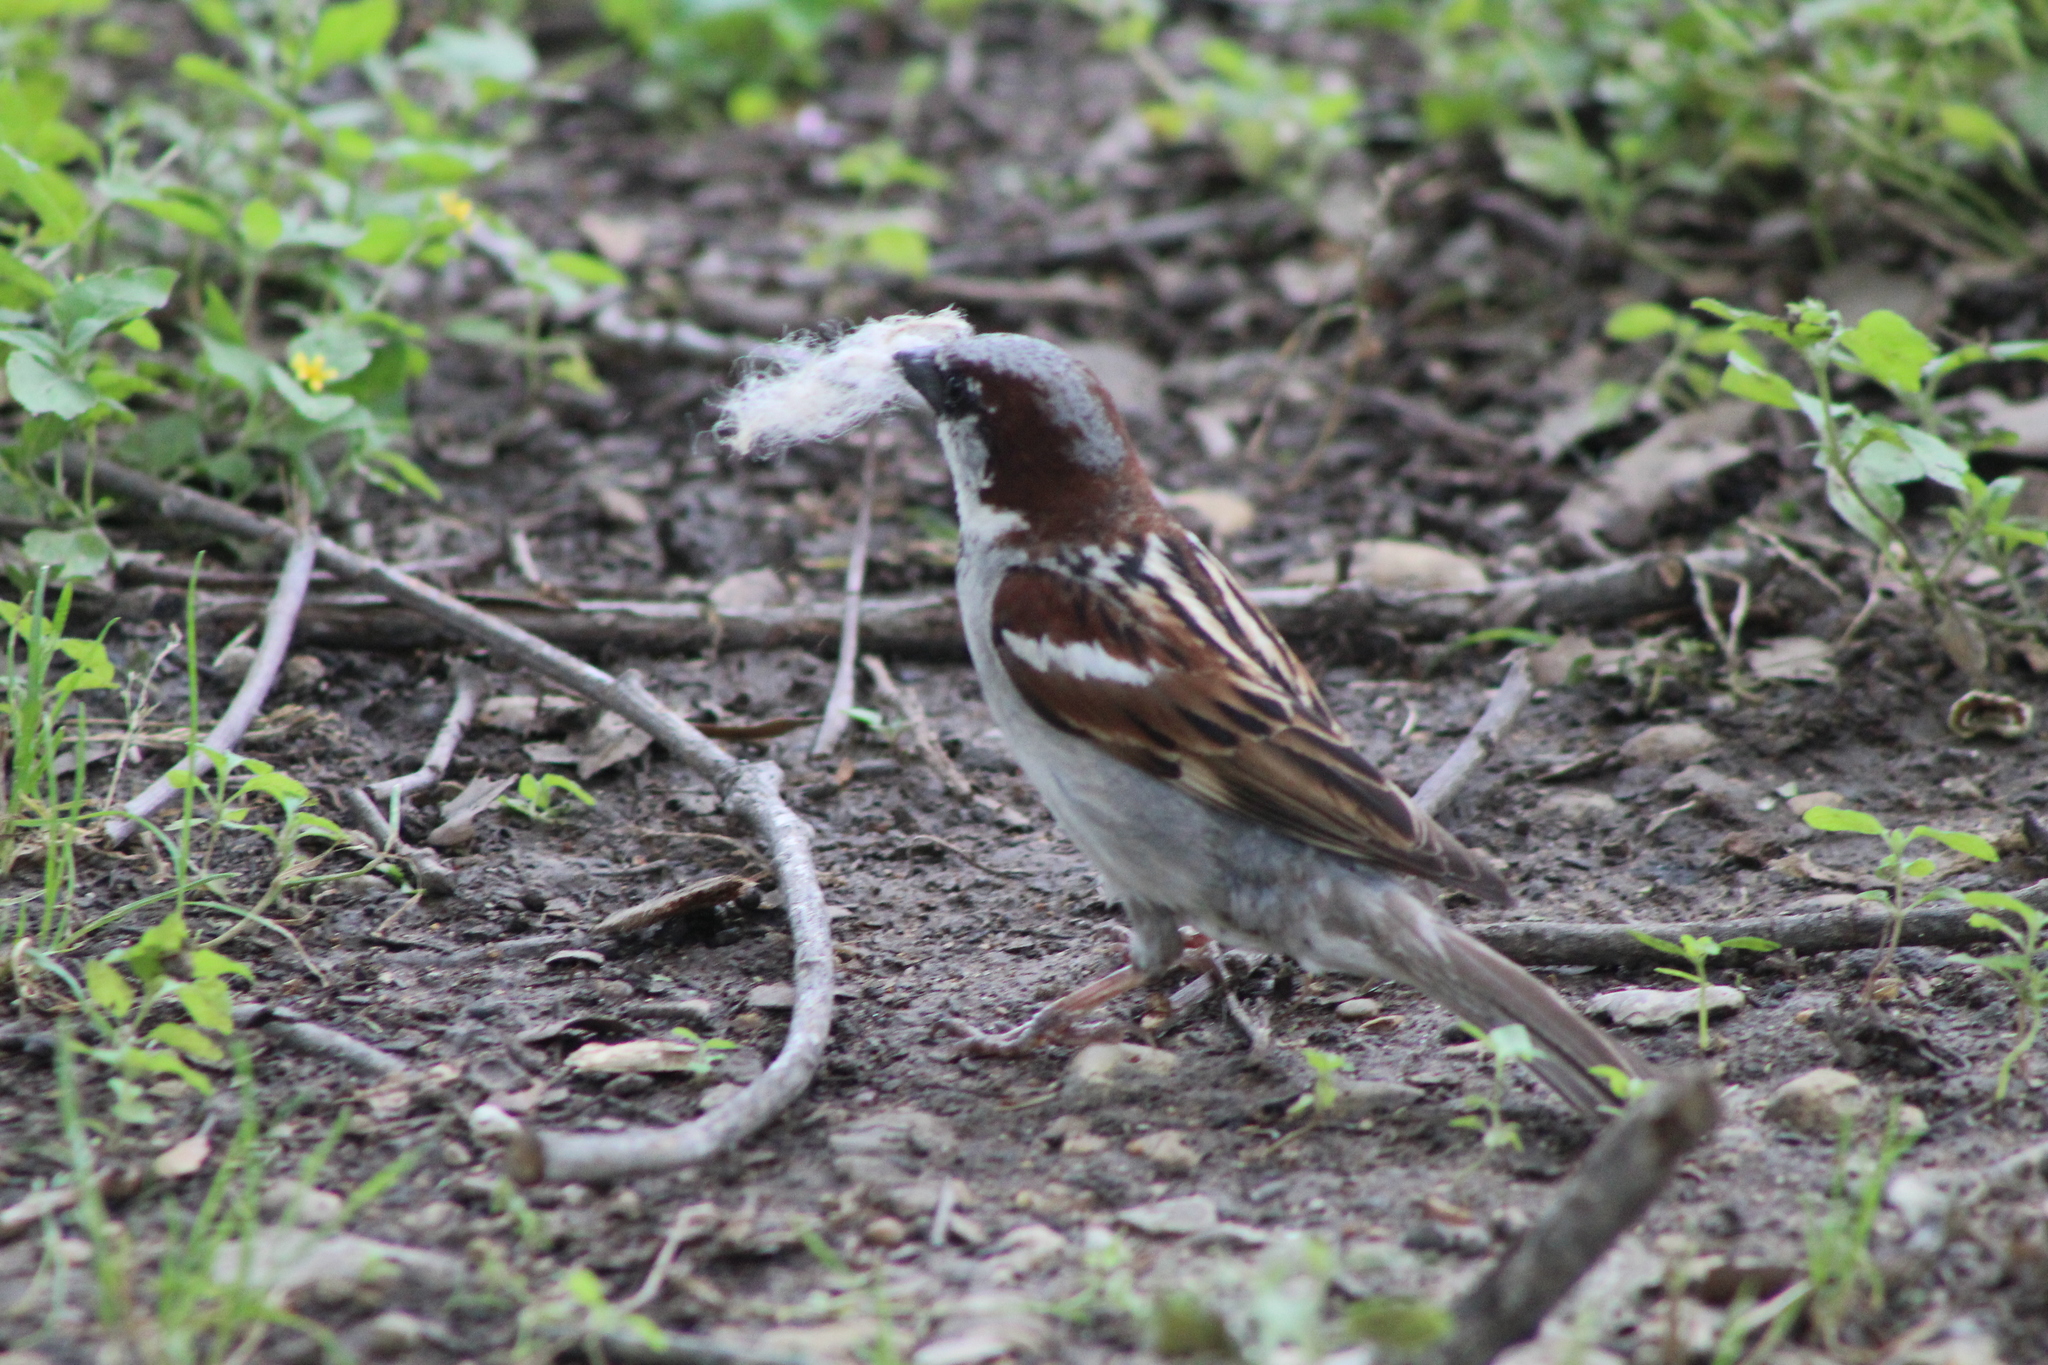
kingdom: Animalia
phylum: Chordata
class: Aves
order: Passeriformes
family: Passeridae
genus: Passer
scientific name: Passer domesticus
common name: House sparrow
